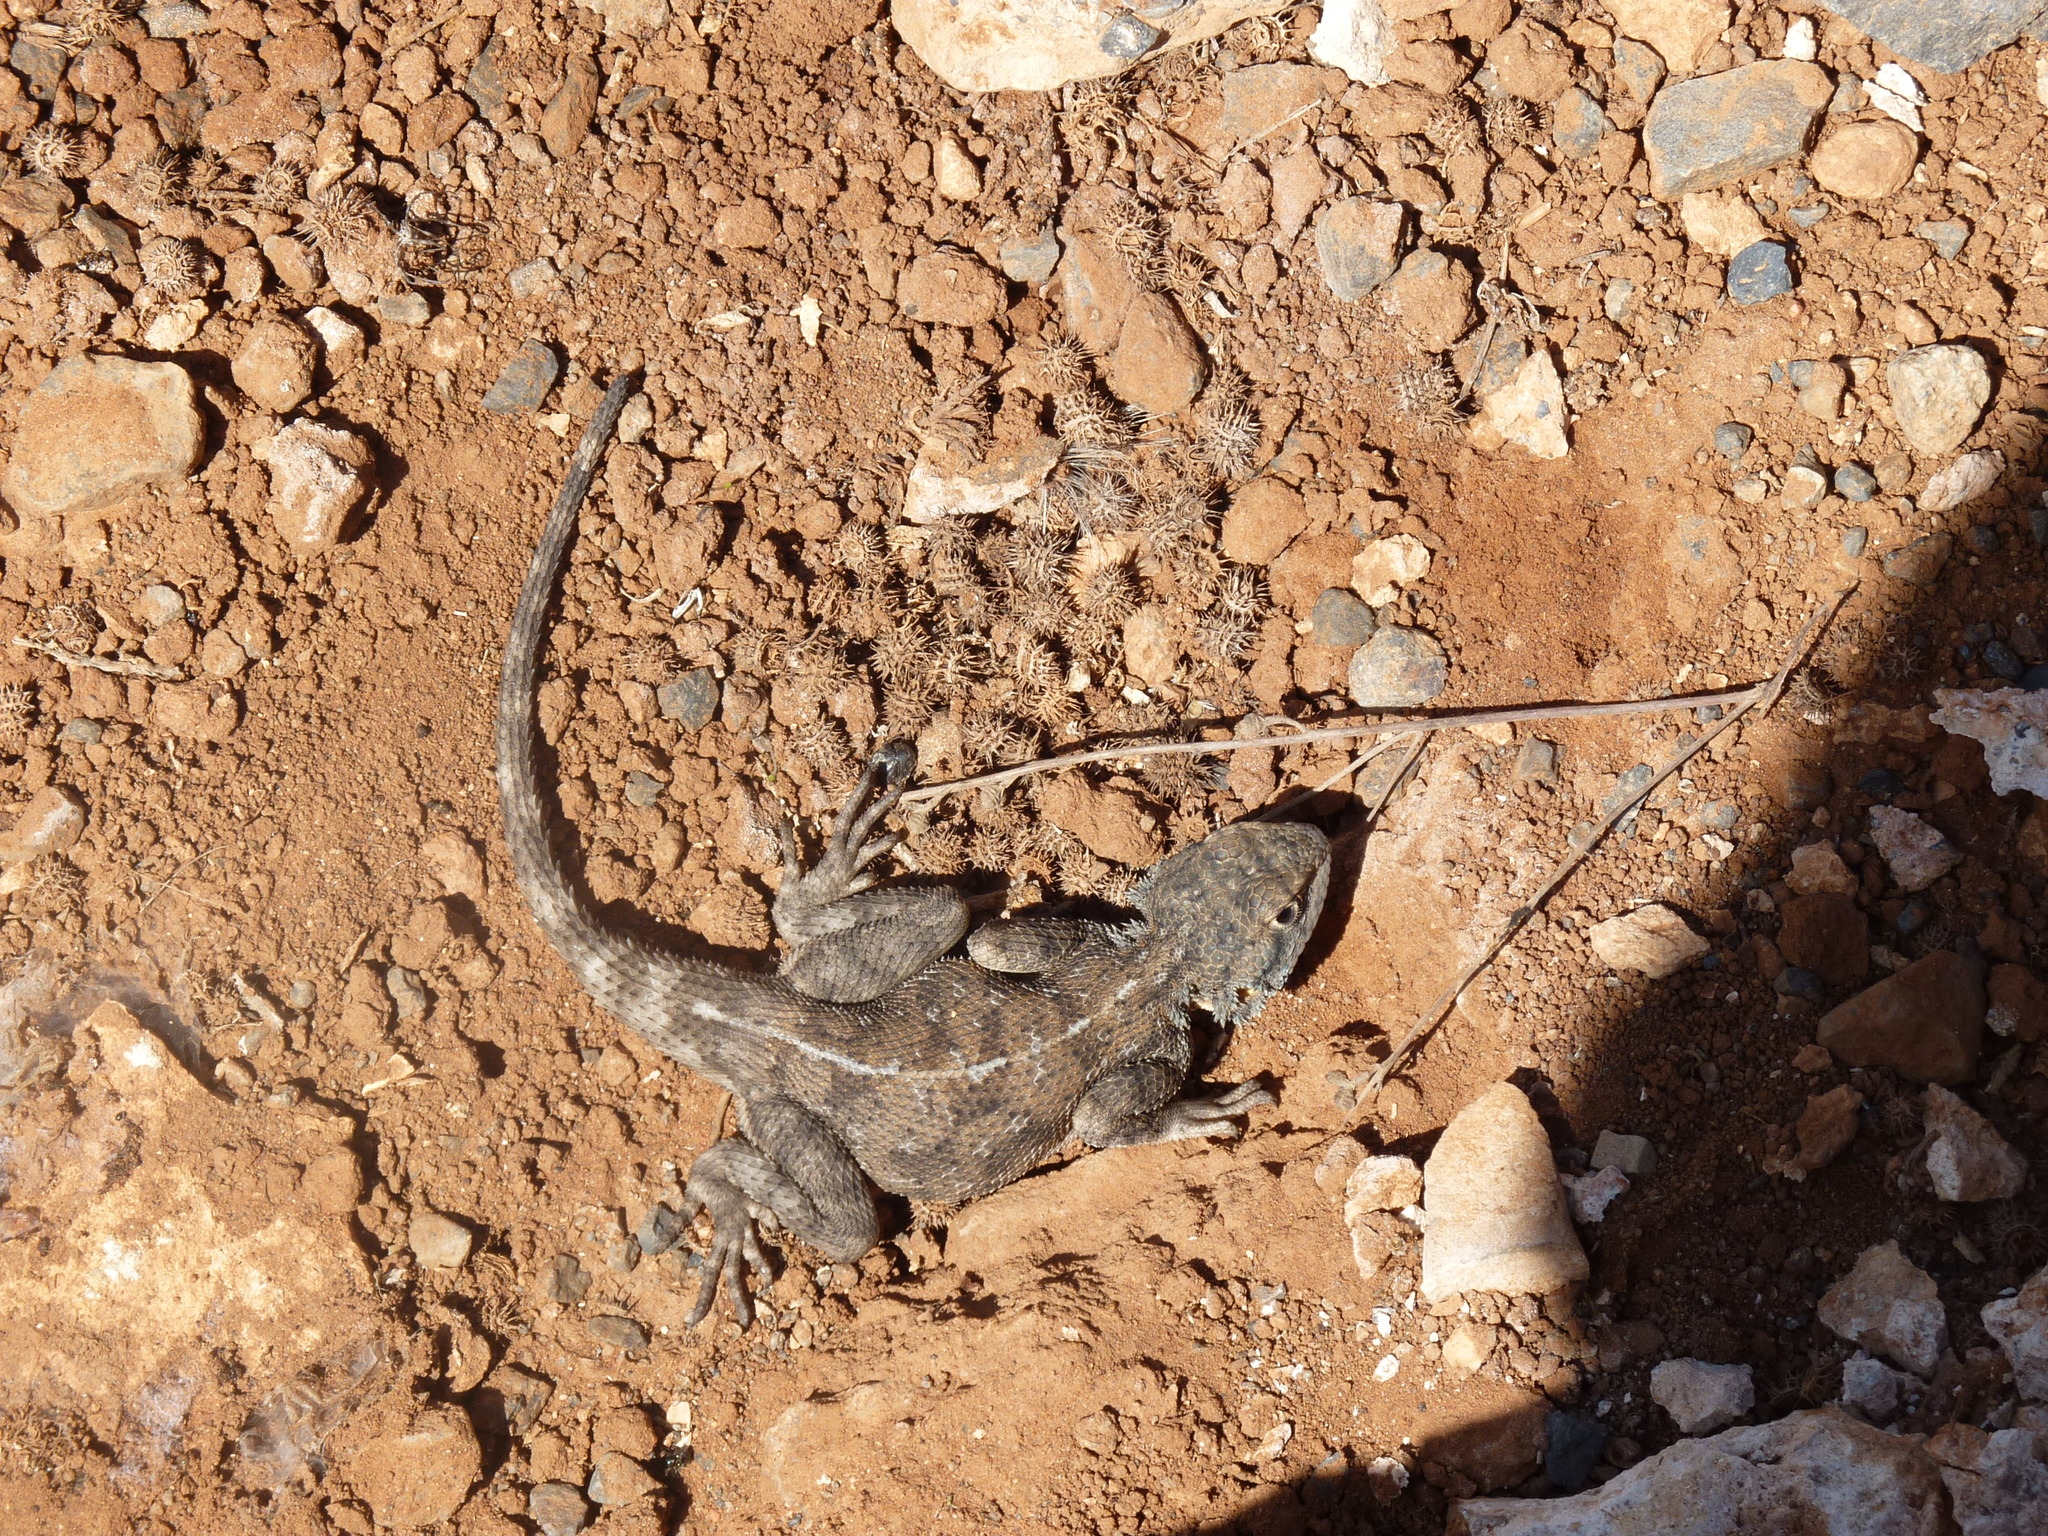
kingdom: Animalia
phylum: Chordata
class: Squamata
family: Agamidae
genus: Agama
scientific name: Agama impalearis
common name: Bibron's agama
